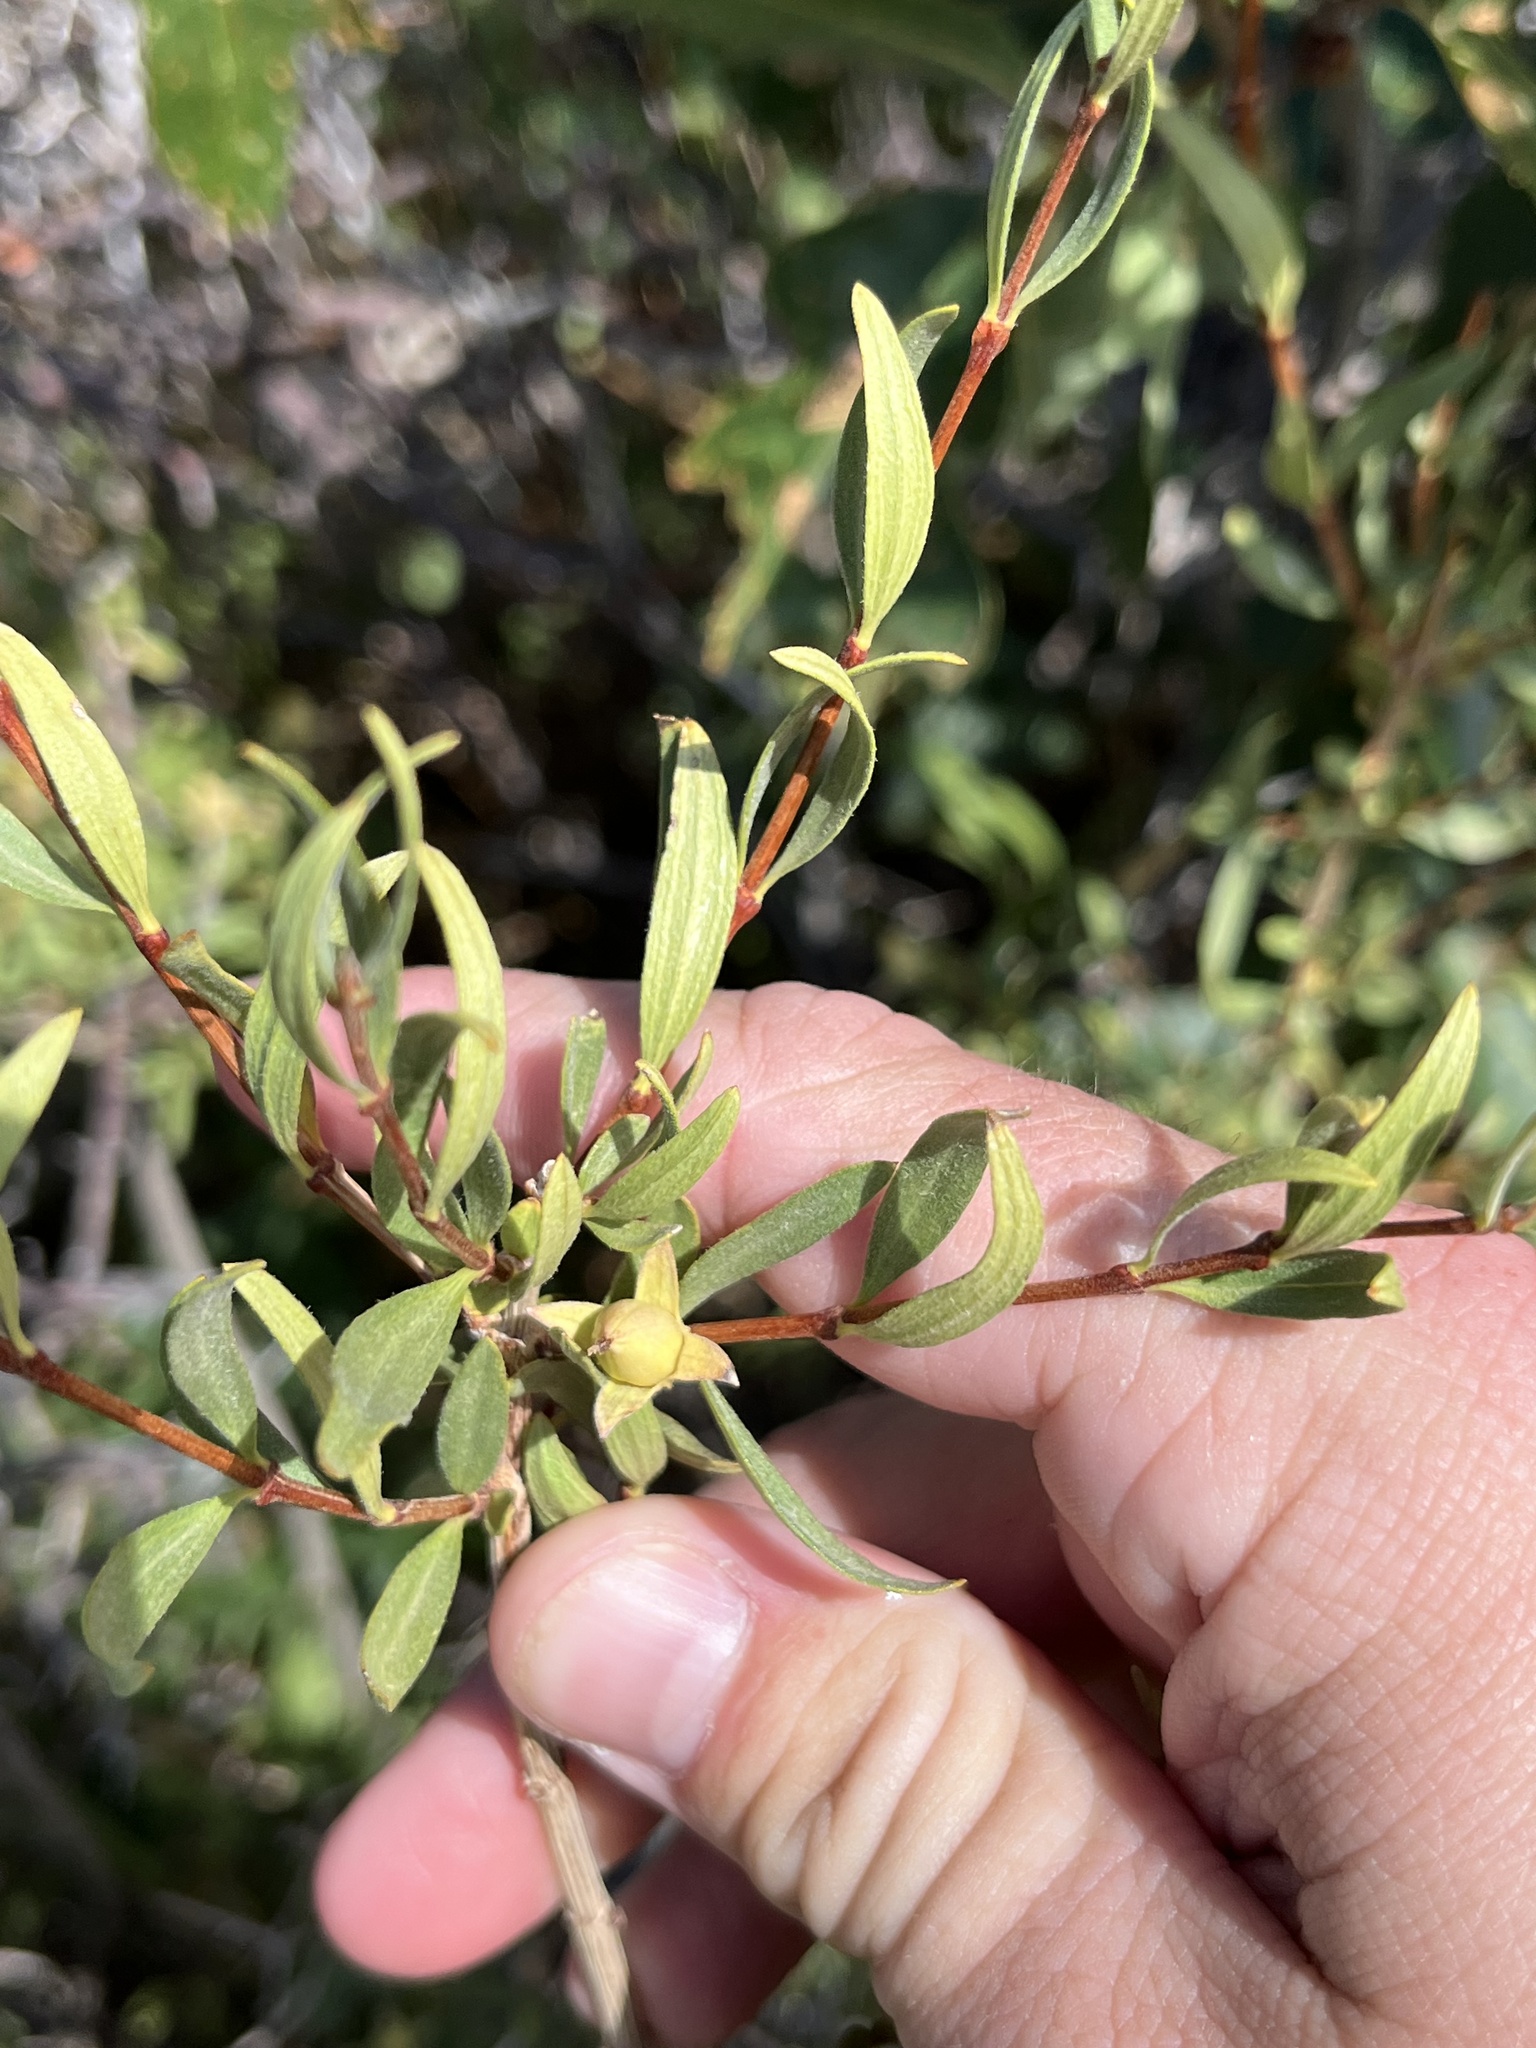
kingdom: Plantae
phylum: Tracheophyta
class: Magnoliopsida
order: Cornales
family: Hydrangeaceae
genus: Fendlera
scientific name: Fendlera rupicola
